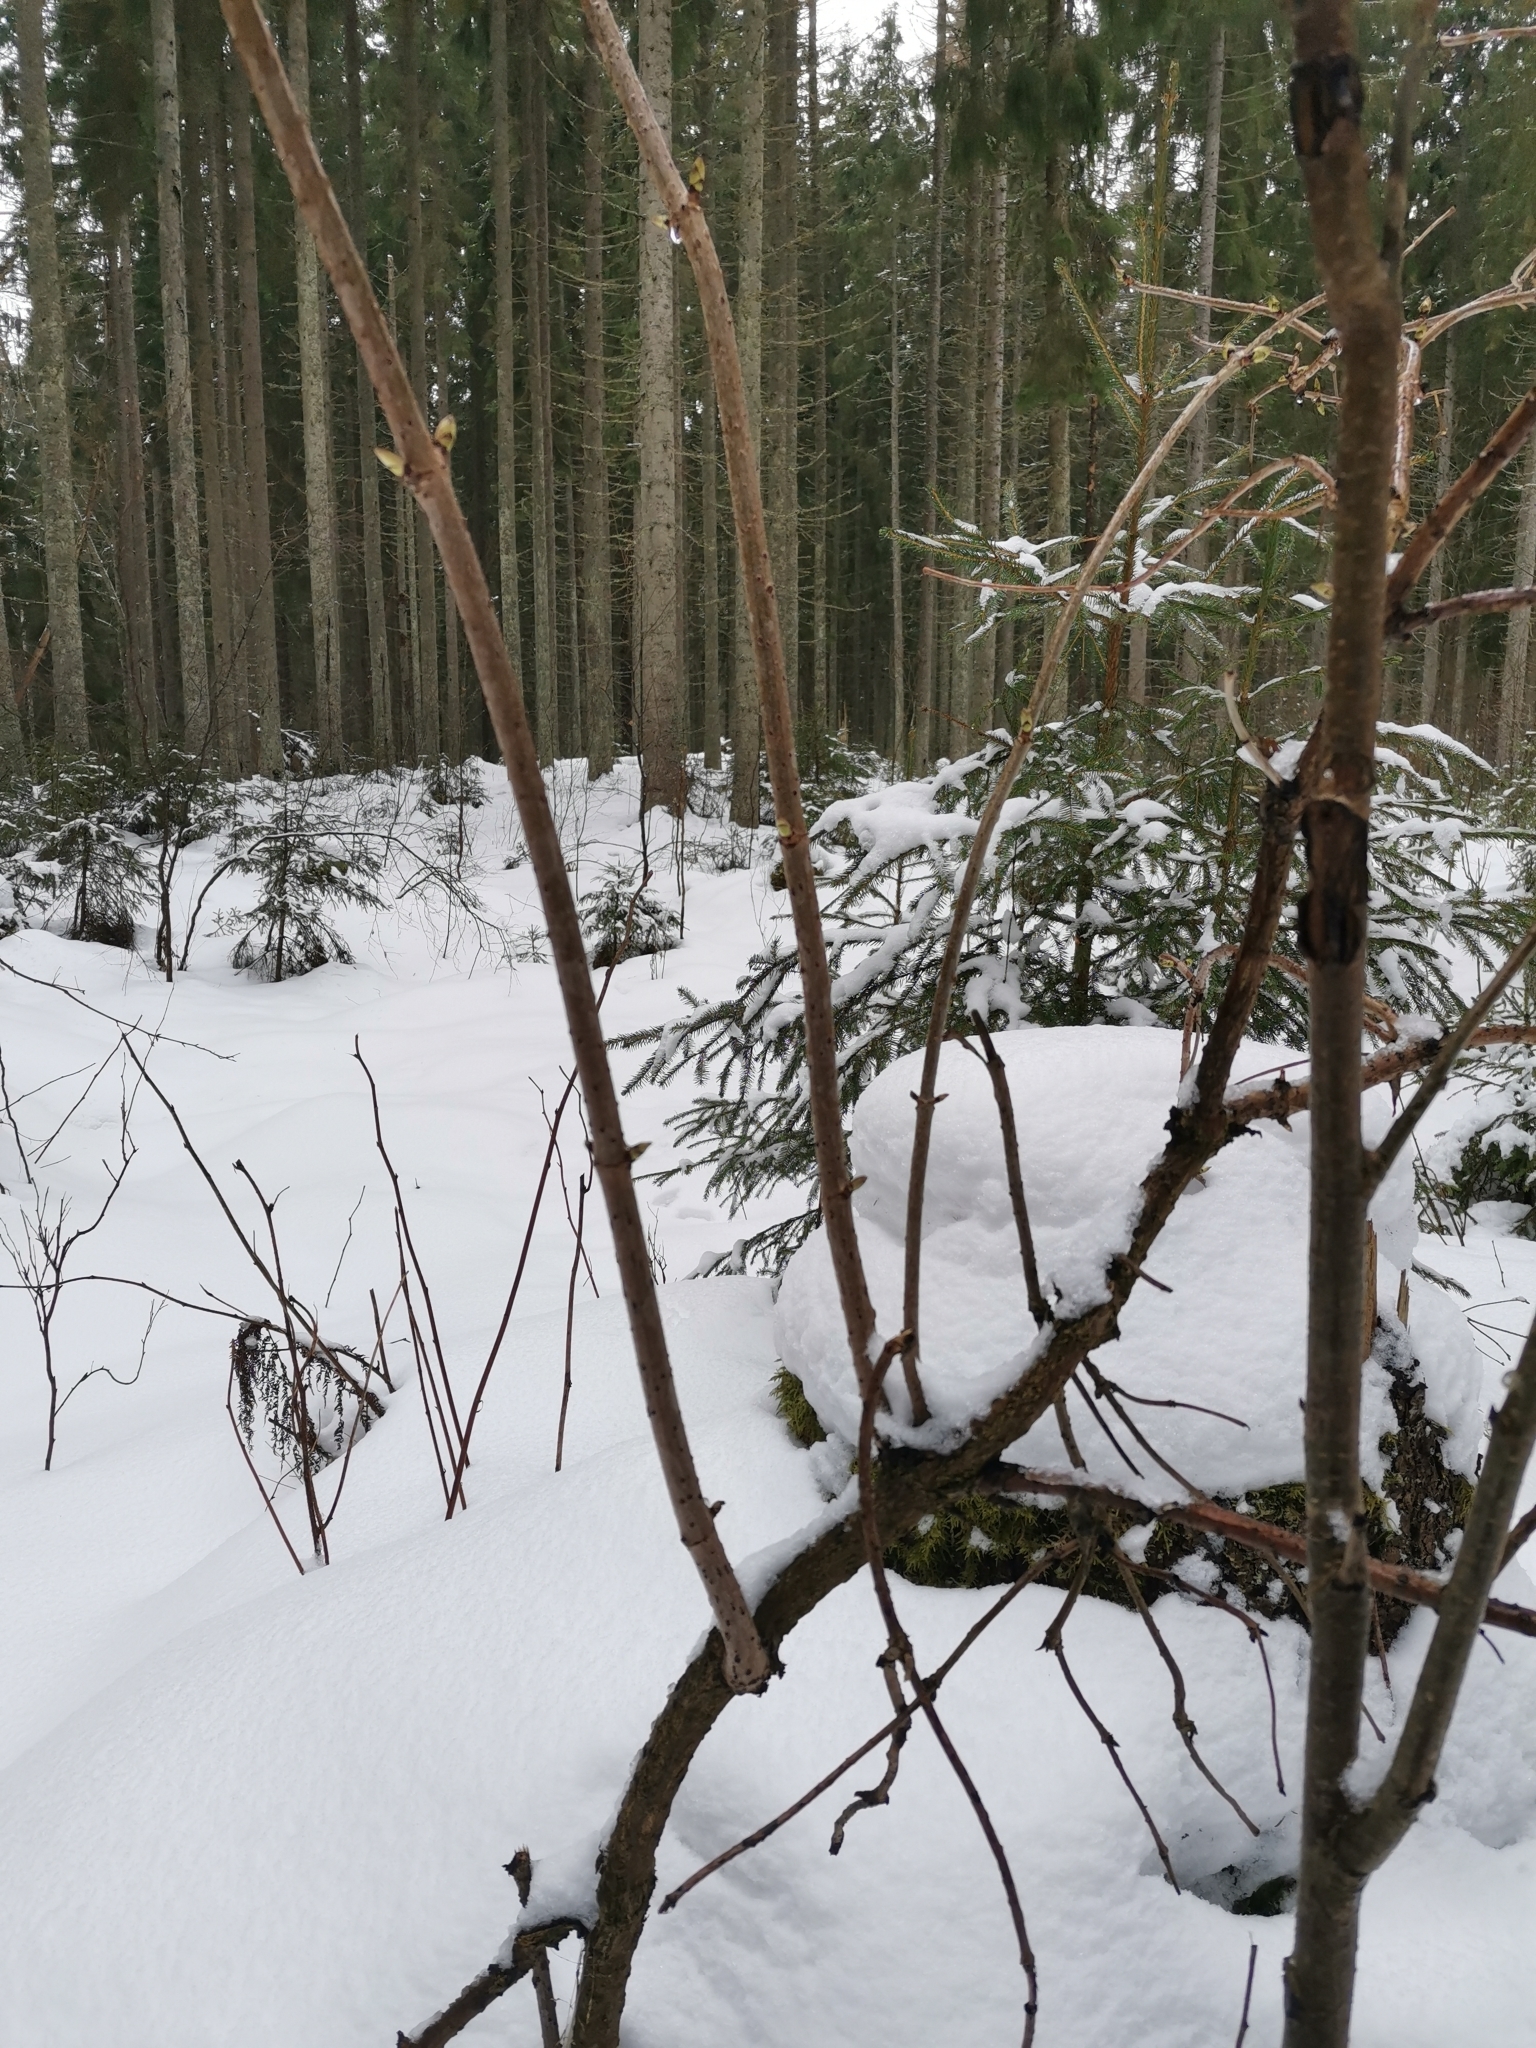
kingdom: Plantae
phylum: Tracheophyta
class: Magnoliopsida
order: Dipsacales
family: Viburnaceae
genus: Sambucus
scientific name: Sambucus racemosa
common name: Red-berried elder
